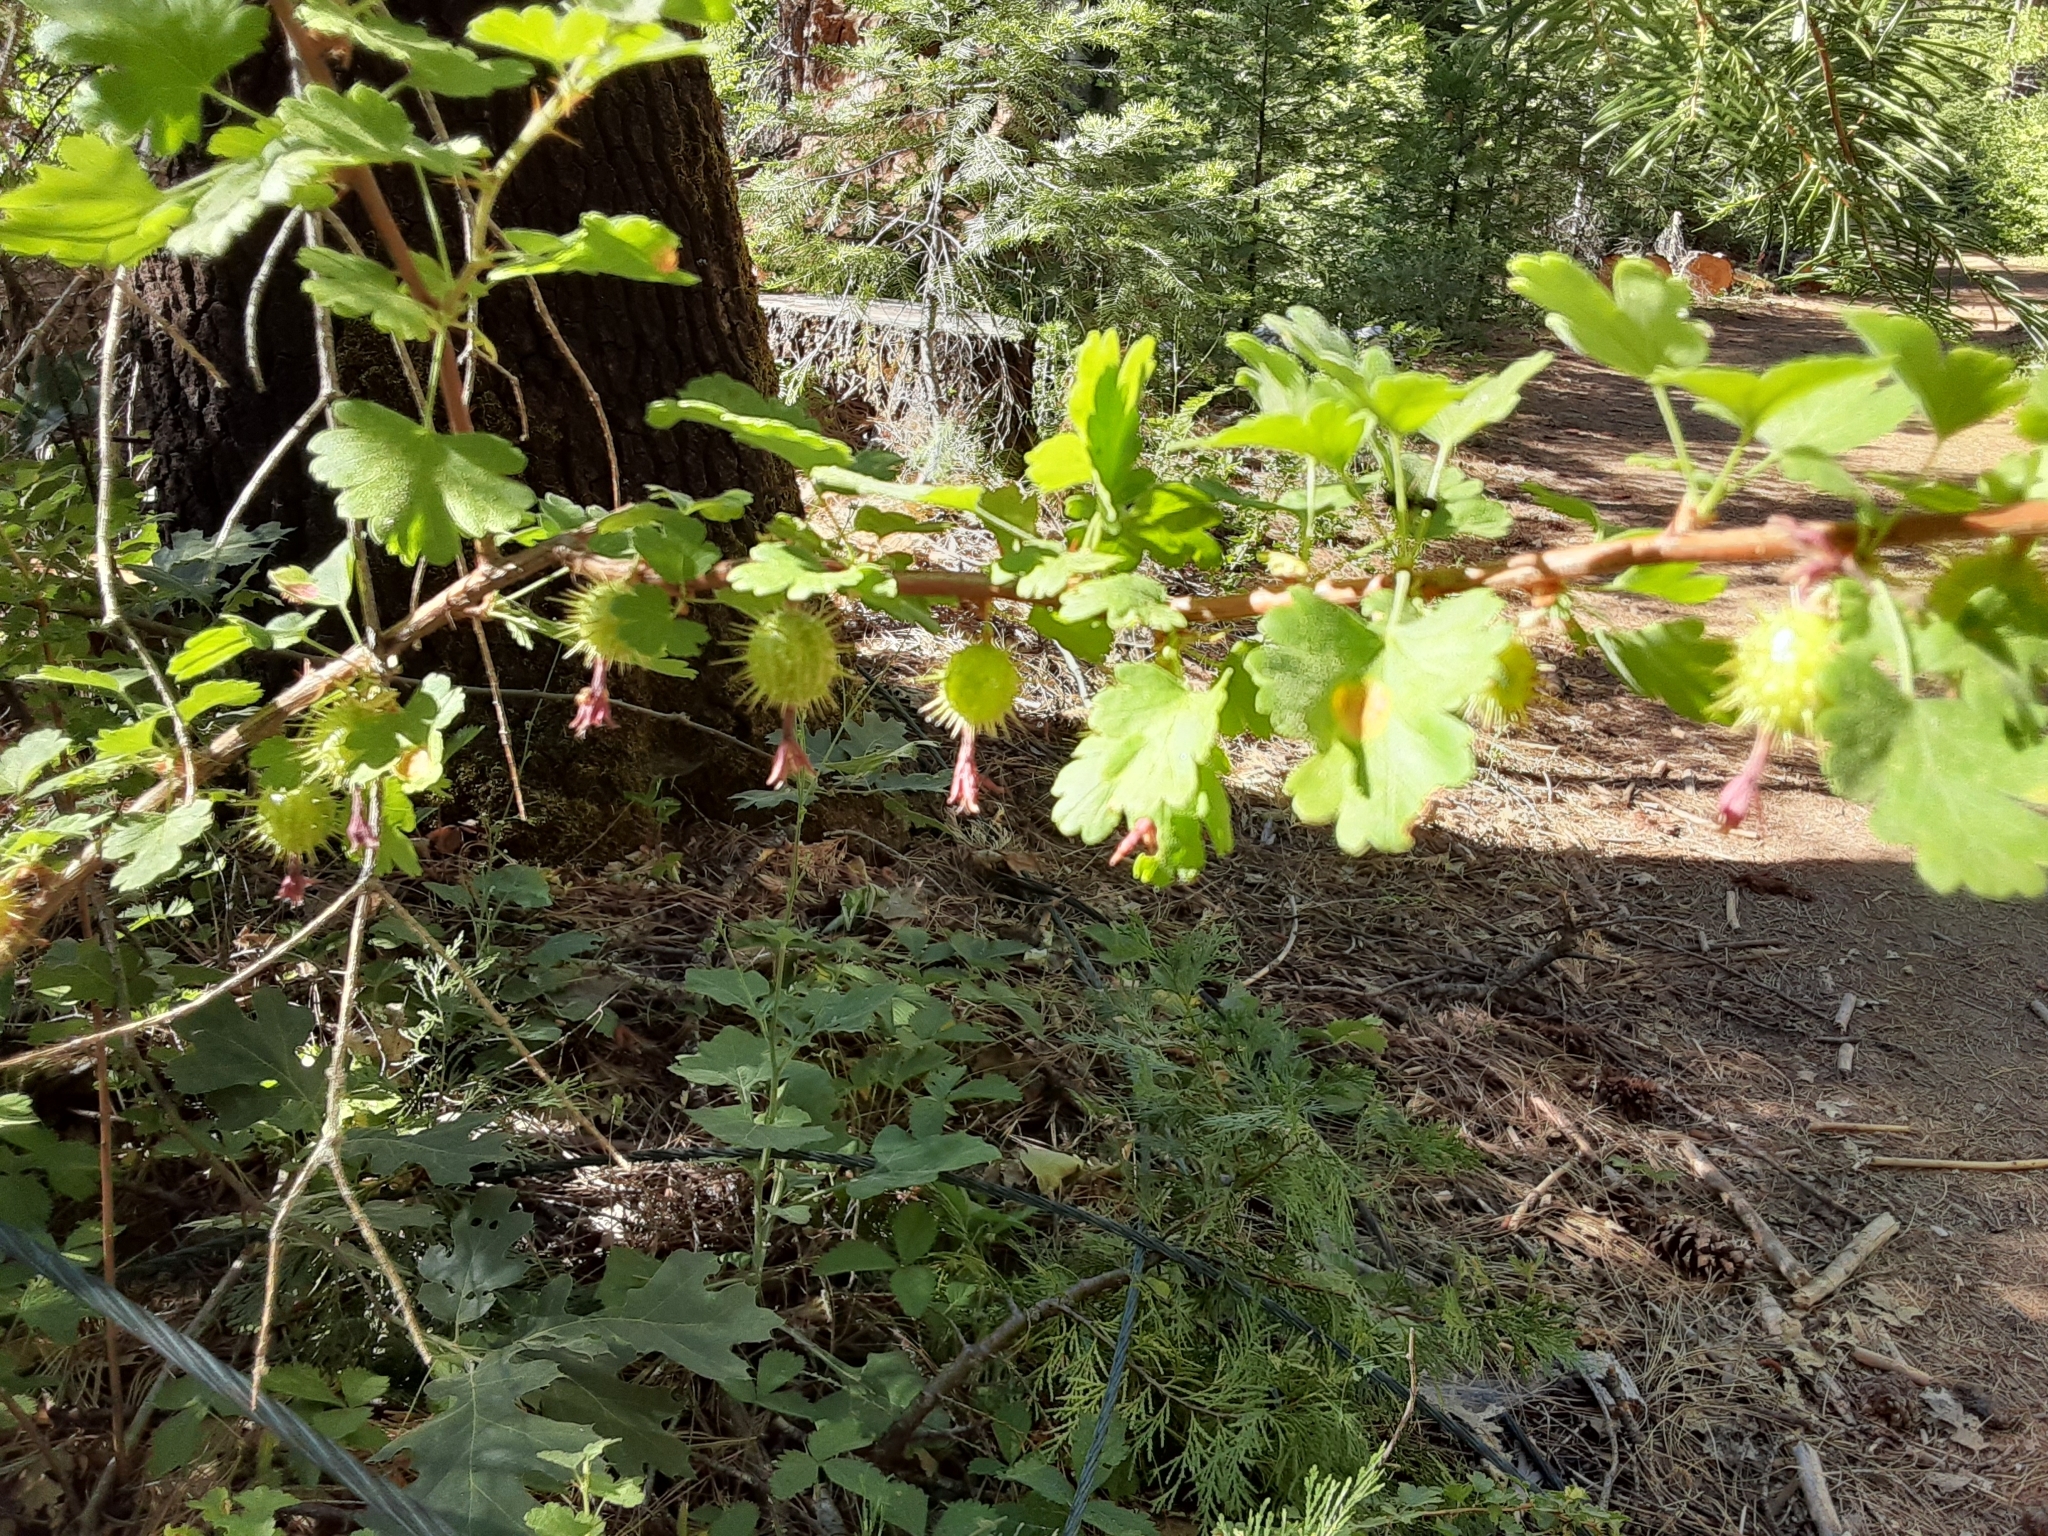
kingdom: Plantae
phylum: Tracheophyta
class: Magnoliopsida
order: Saxifragales
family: Grossulariaceae
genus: Ribes
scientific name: Ribes roezlii
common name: Sierra gooseberry
